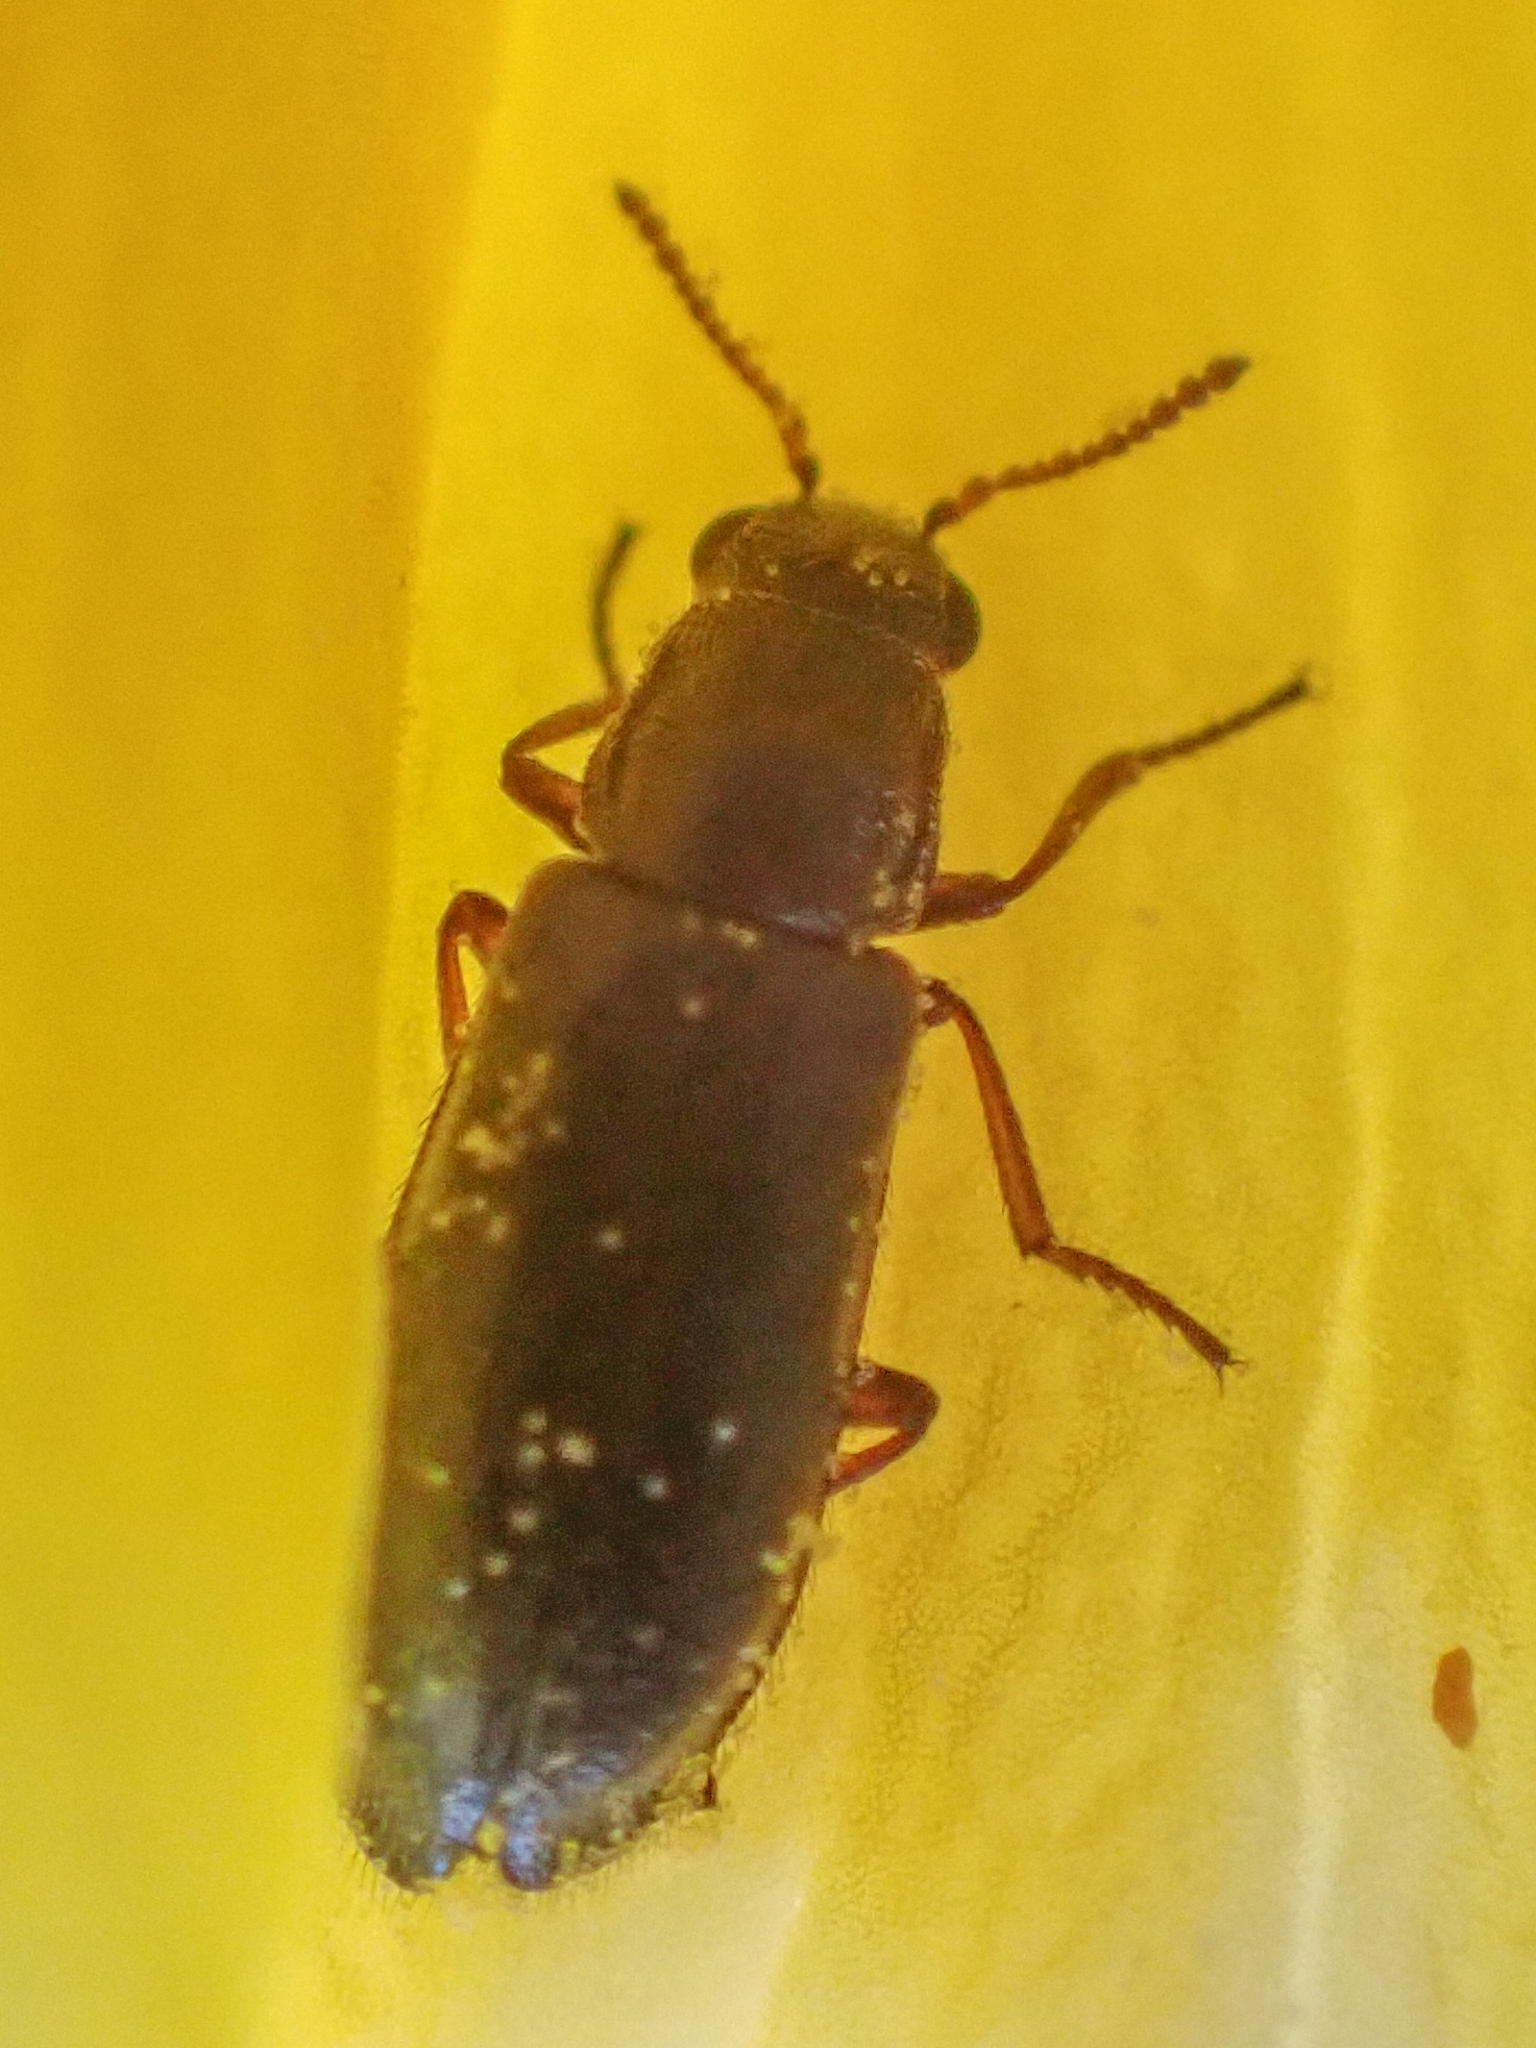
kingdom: Animalia
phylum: Arthropoda
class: Insecta
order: Coleoptera
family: Melyridae
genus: Eschatocrepis
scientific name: Eschatocrepis
